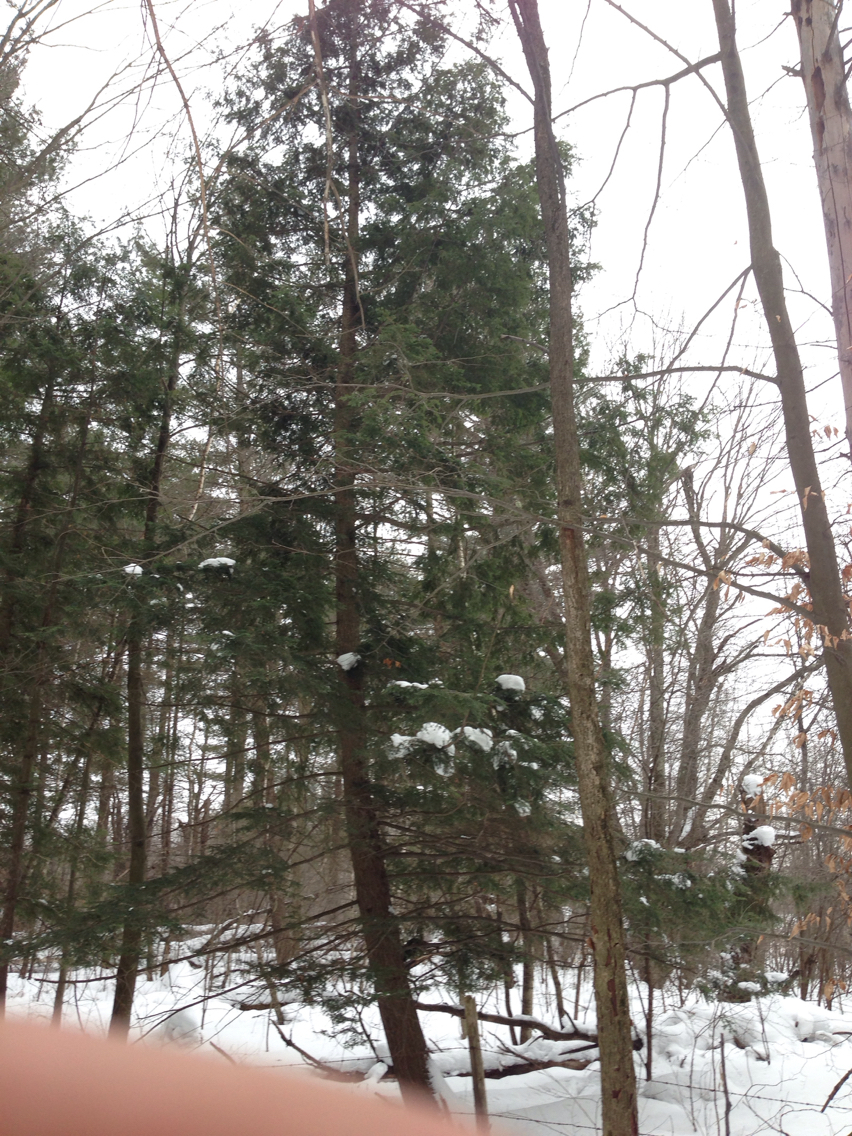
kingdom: Plantae
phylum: Tracheophyta
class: Pinopsida
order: Pinales
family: Pinaceae
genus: Tsuga
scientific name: Tsuga canadensis
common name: Eastern hemlock
